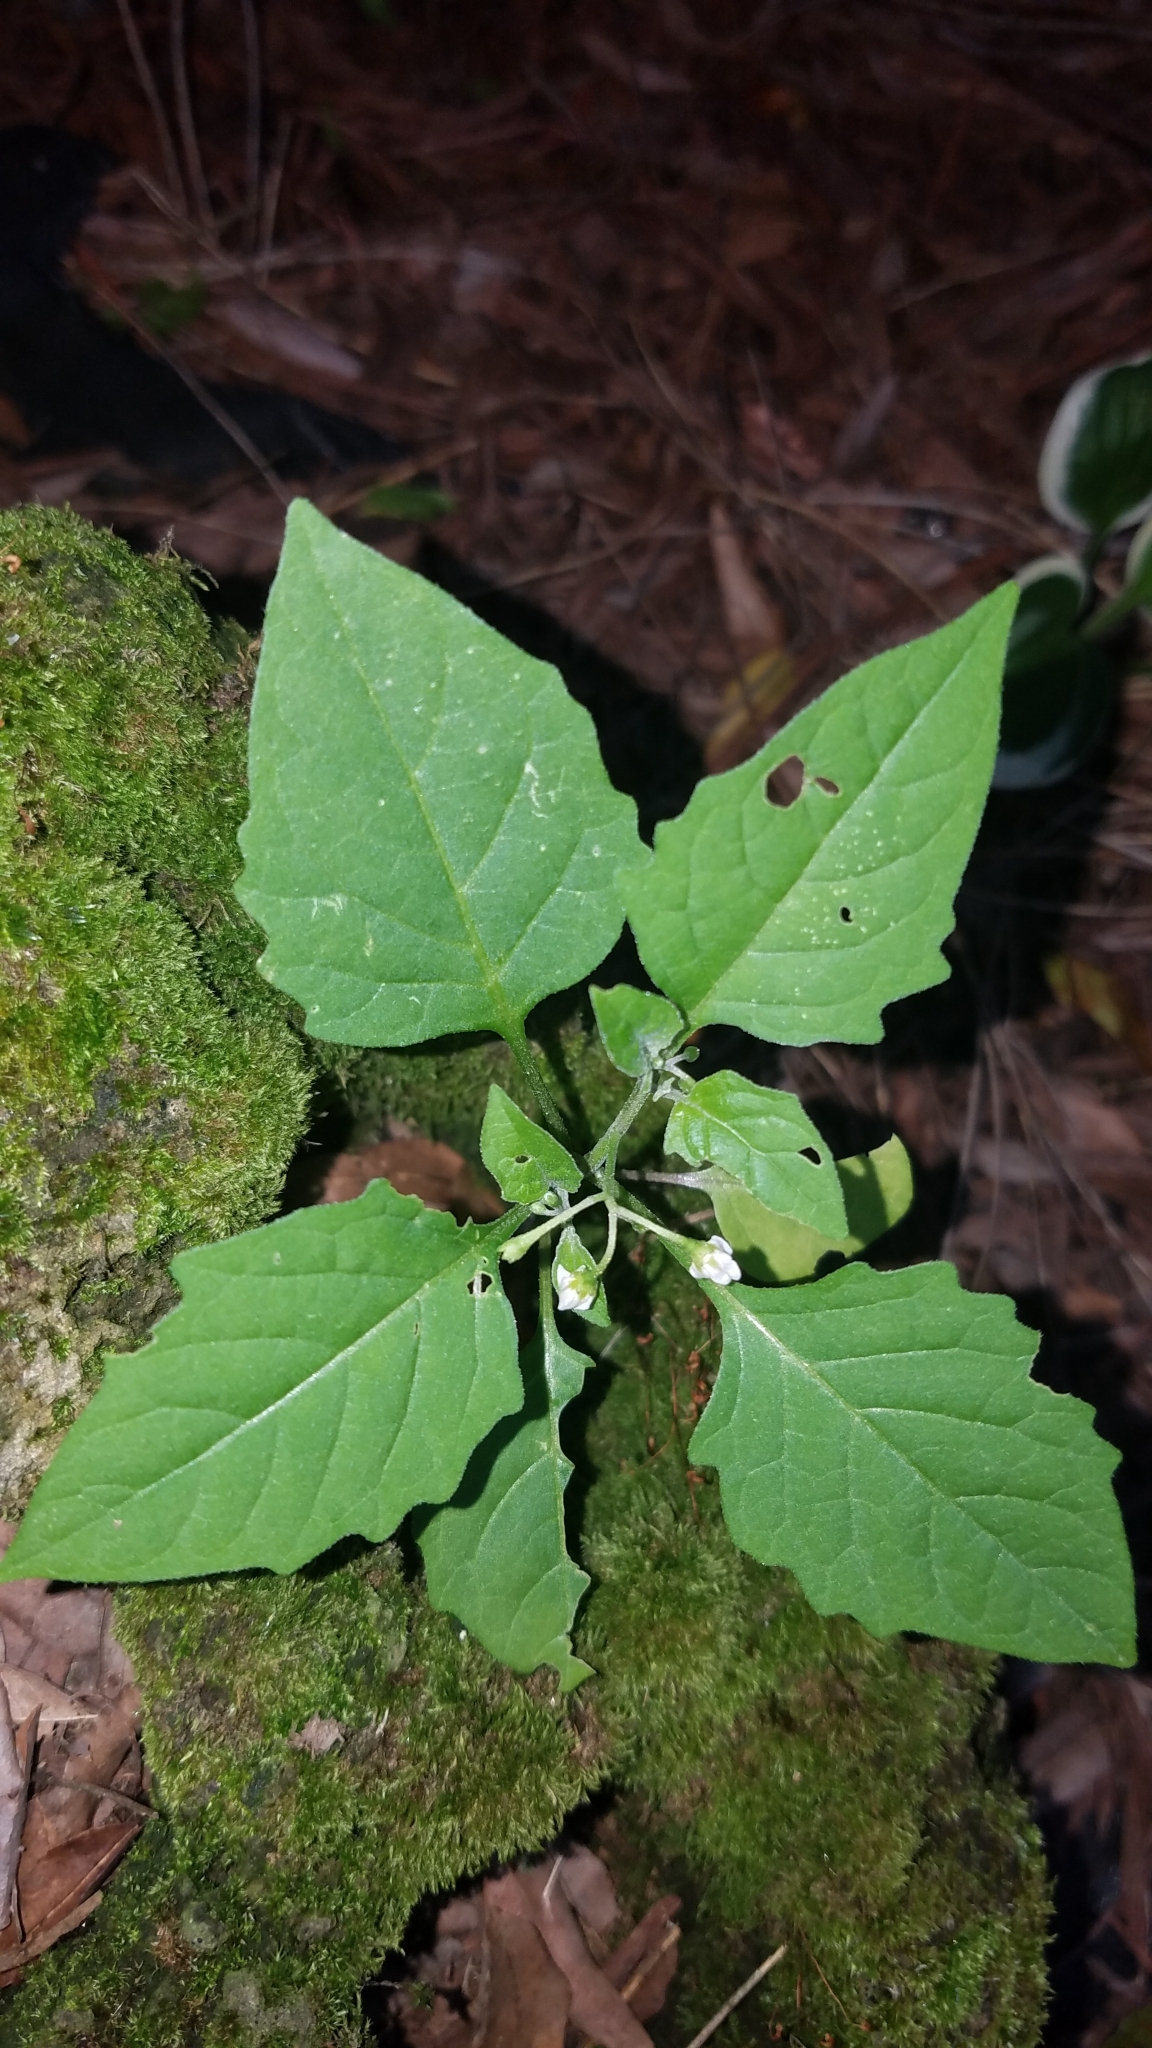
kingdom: Plantae
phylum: Tracheophyta
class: Magnoliopsida
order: Solanales
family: Solanaceae
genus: Solanum
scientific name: Solanum emulans
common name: Eastern black nightshade
